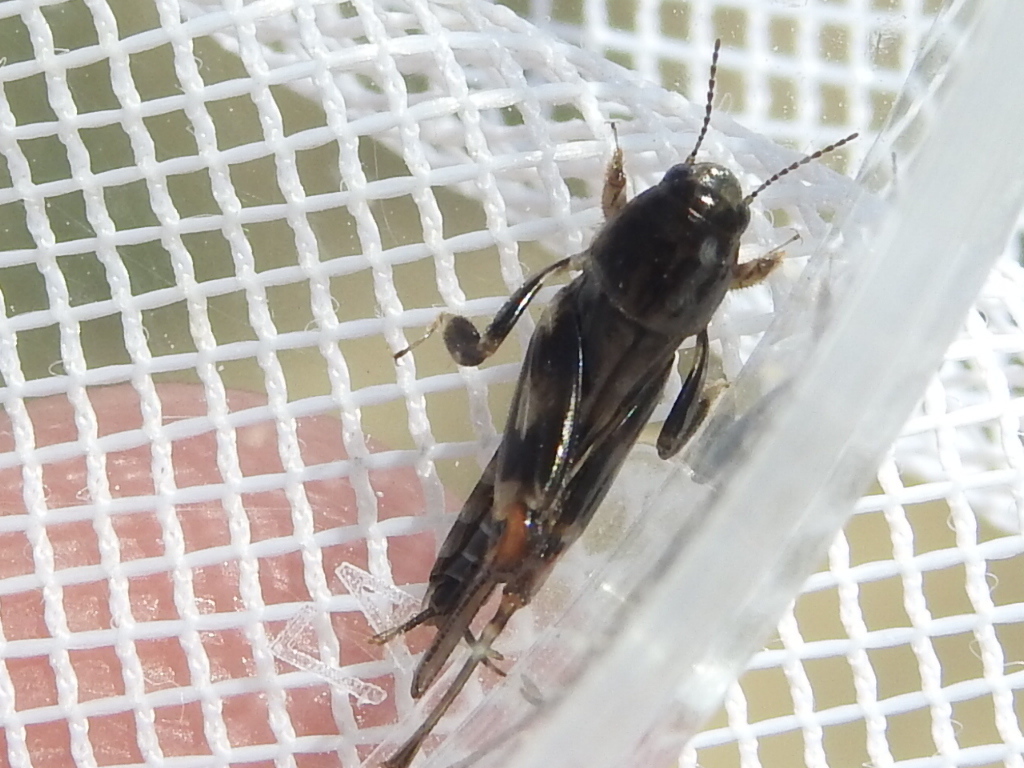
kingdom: Animalia
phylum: Arthropoda
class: Insecta
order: Orthoptera
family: Tridactylidae
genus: Neotridactylus
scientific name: Neotridactylus apicialis
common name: Larger pygmy locust
